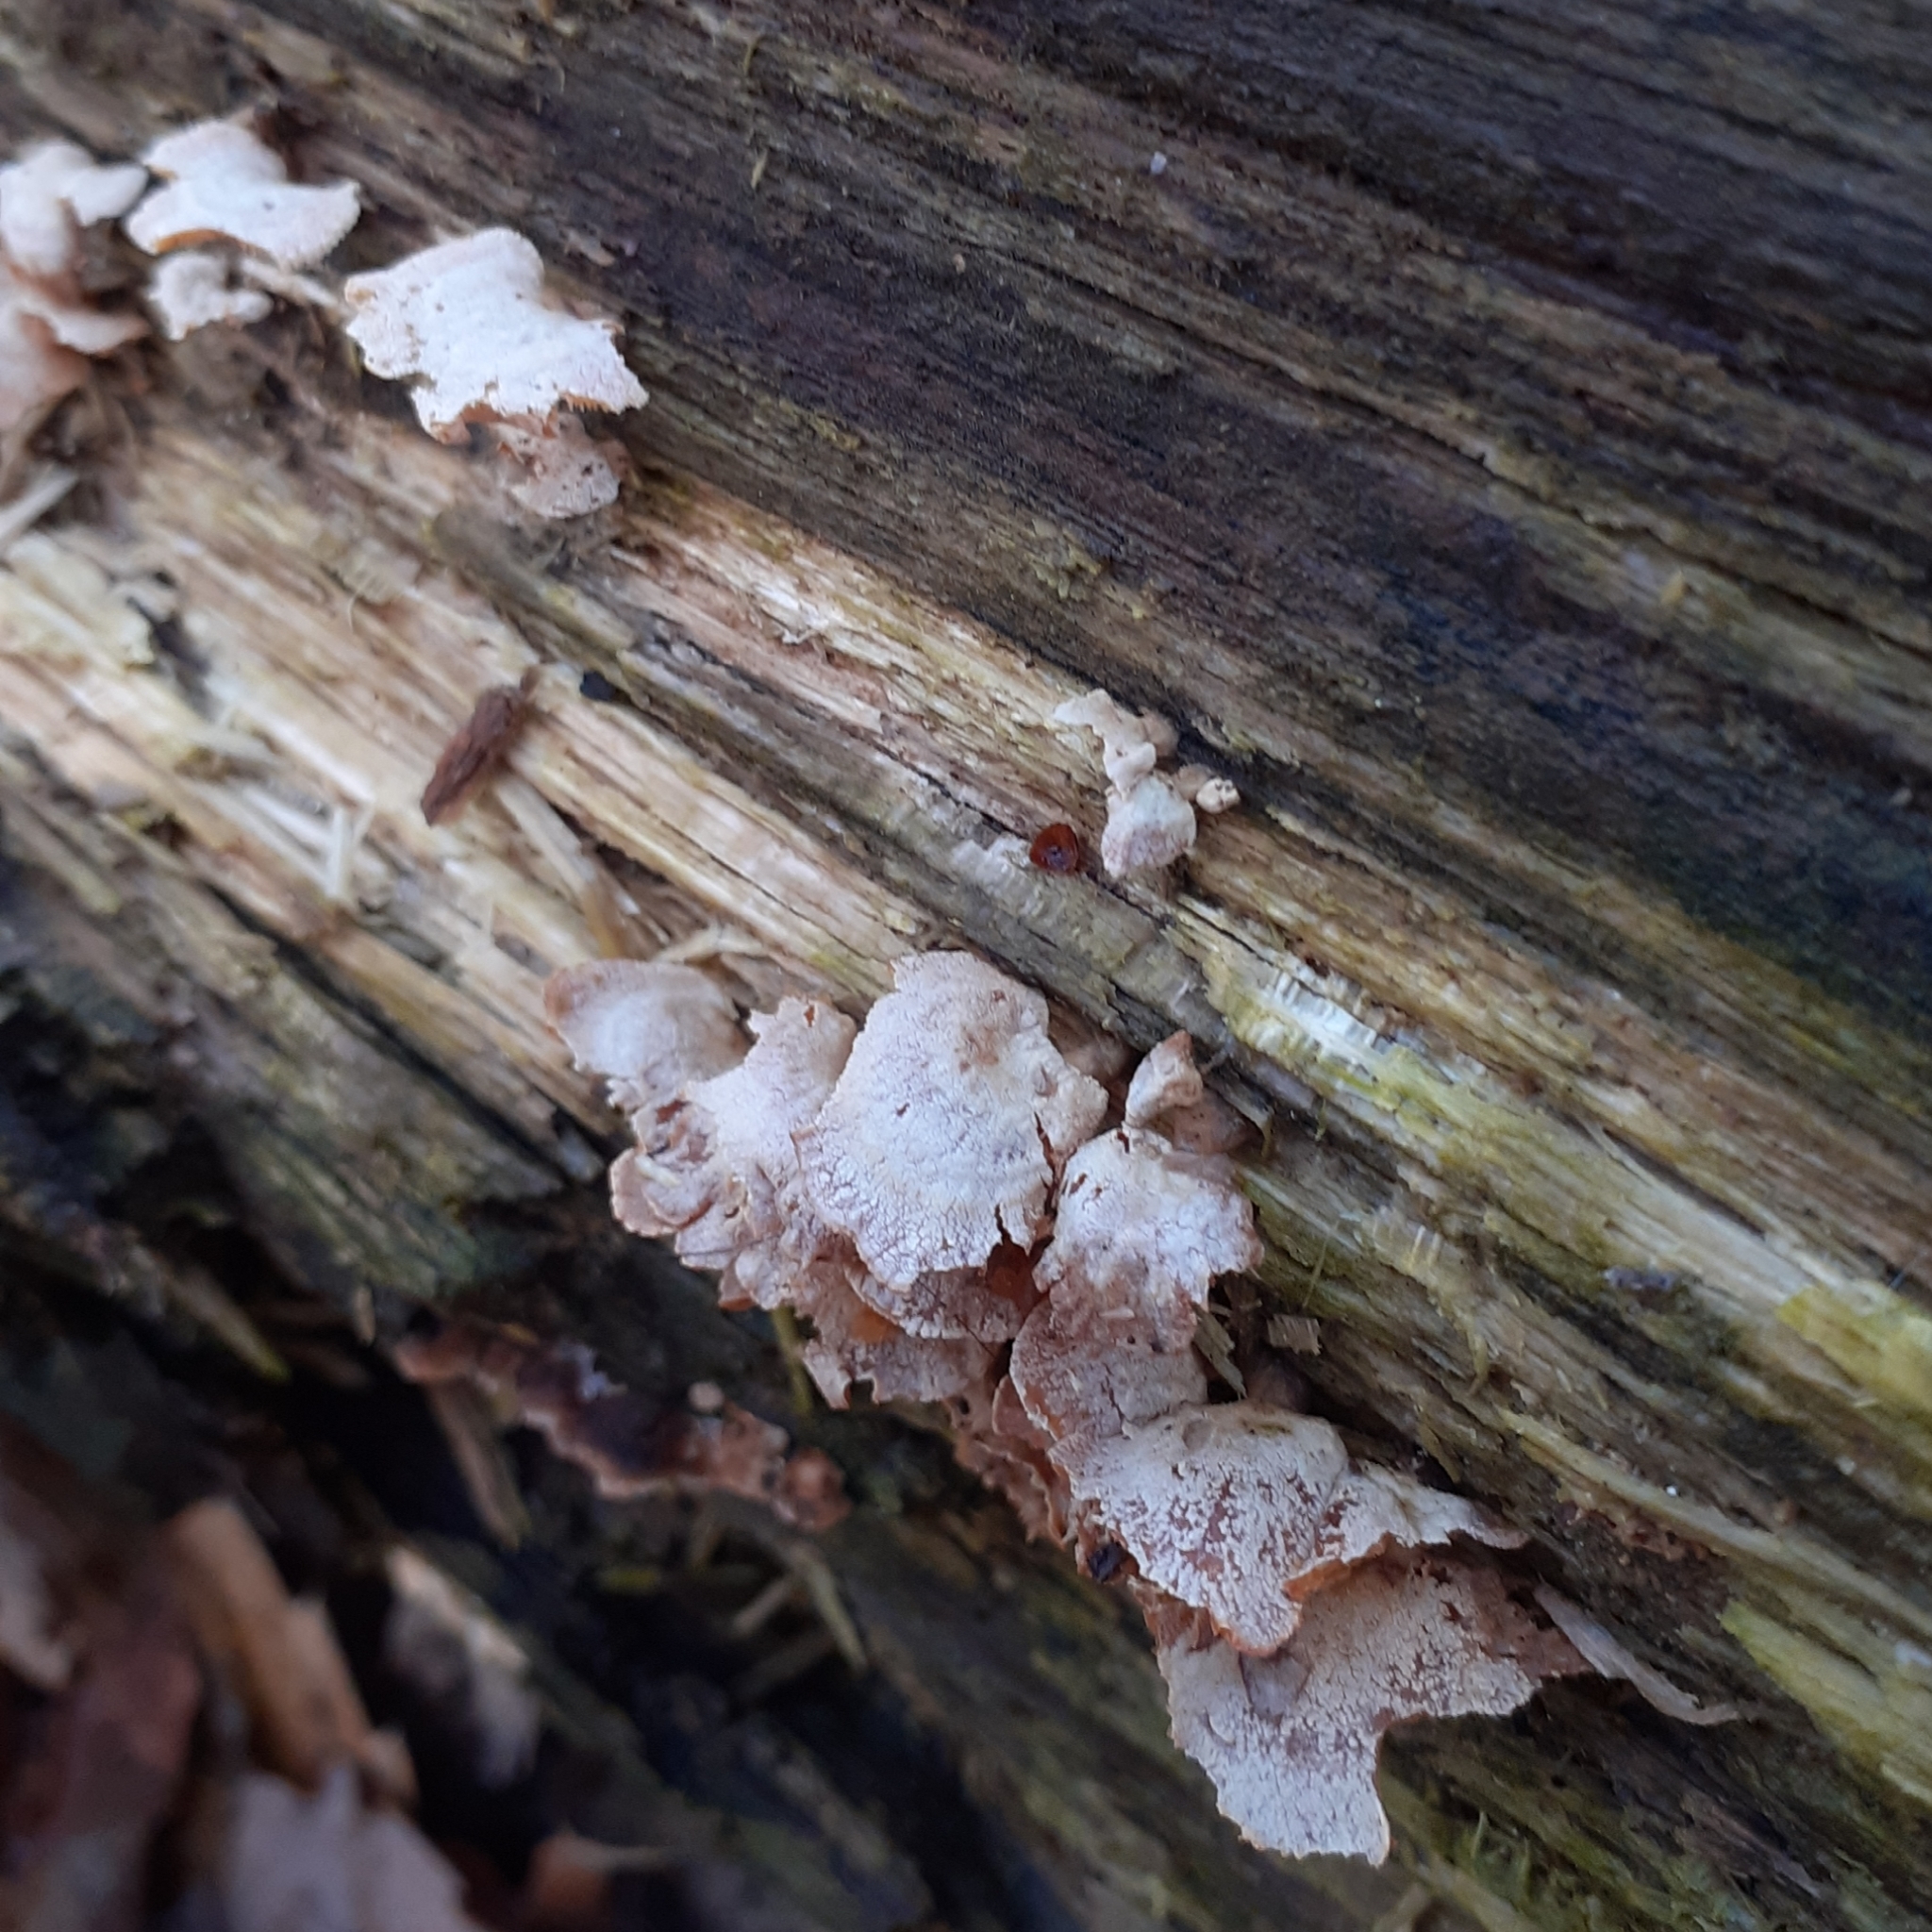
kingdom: Fungi
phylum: Basidiomycota
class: Agaricomycetes
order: Agaricales
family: Mycenaceae
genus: Panellus
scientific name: Panellus stipticus
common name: Bitter oysterling
